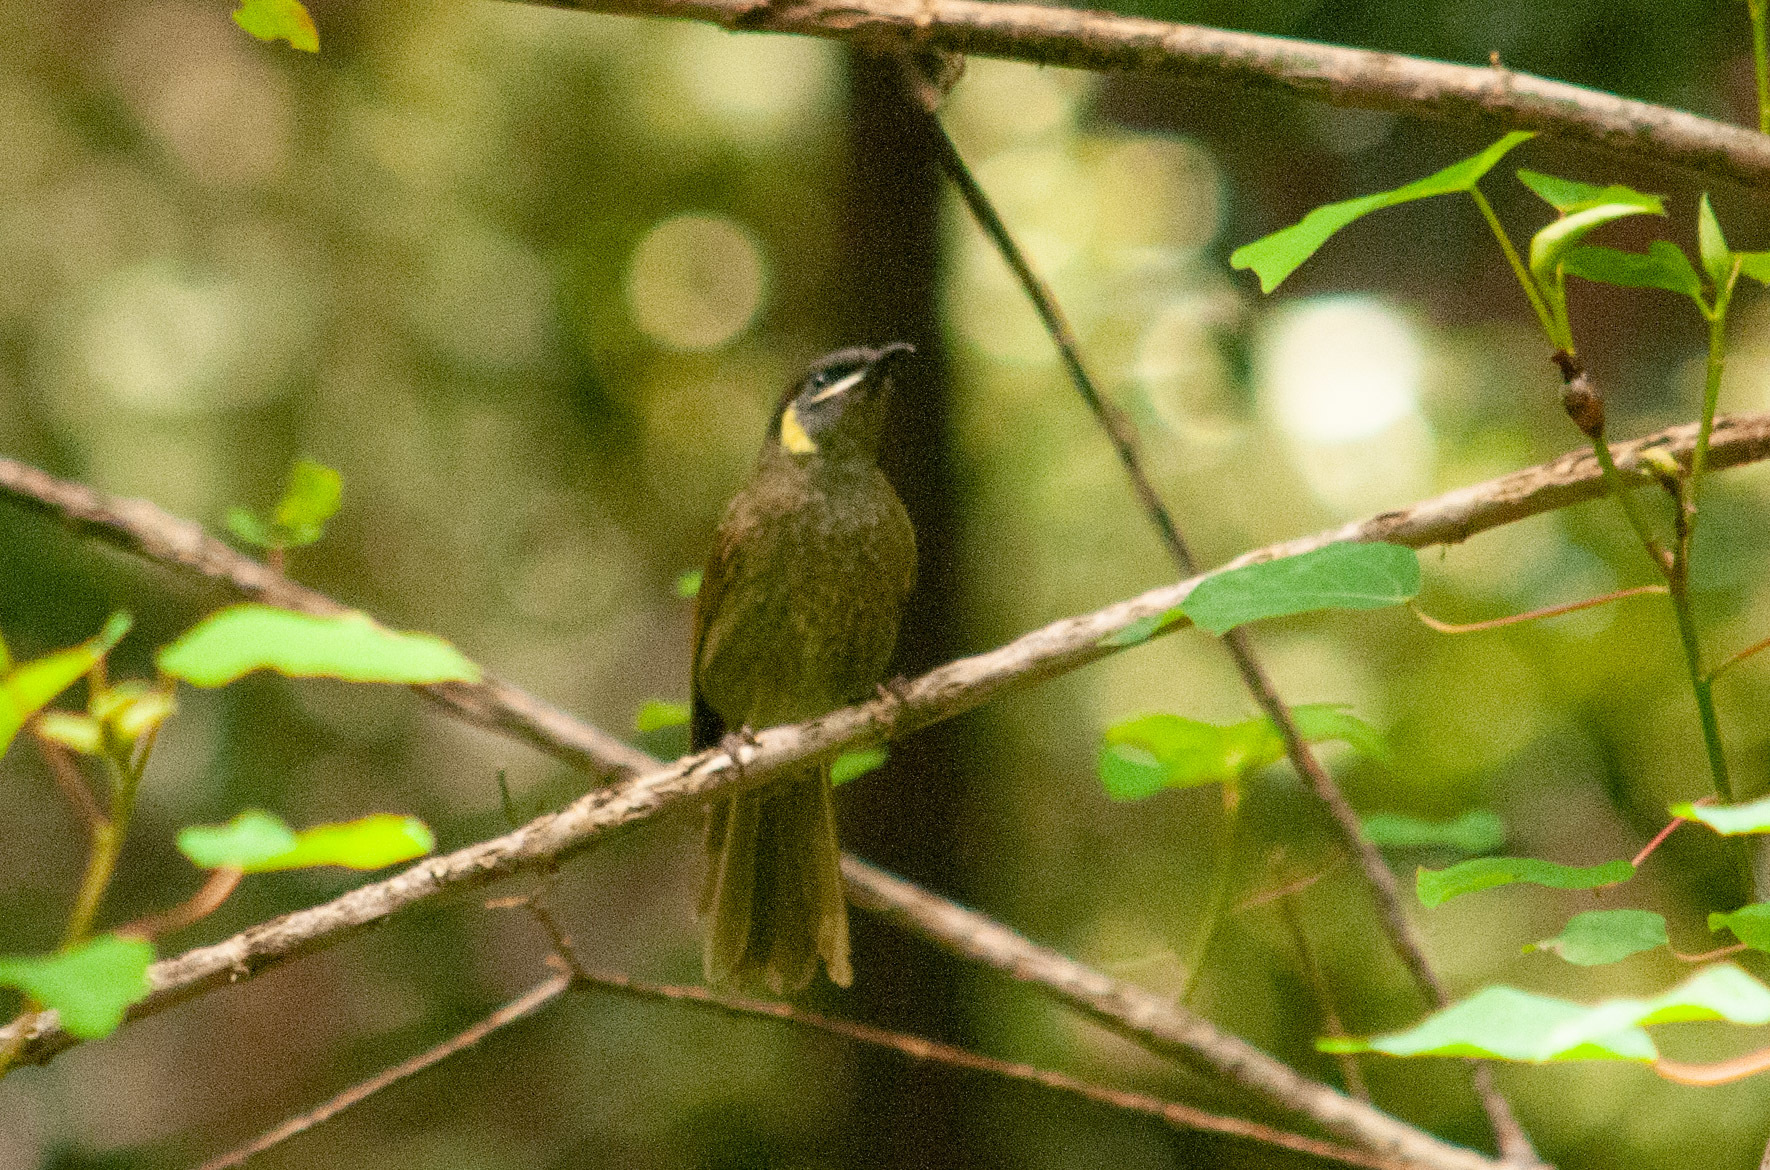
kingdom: Animalia
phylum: Chordata
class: Aves
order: Passeriformes
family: Meliphagidae
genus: Meliphaga
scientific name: Meliphaga lewinii
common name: Lewin's honeyeater
